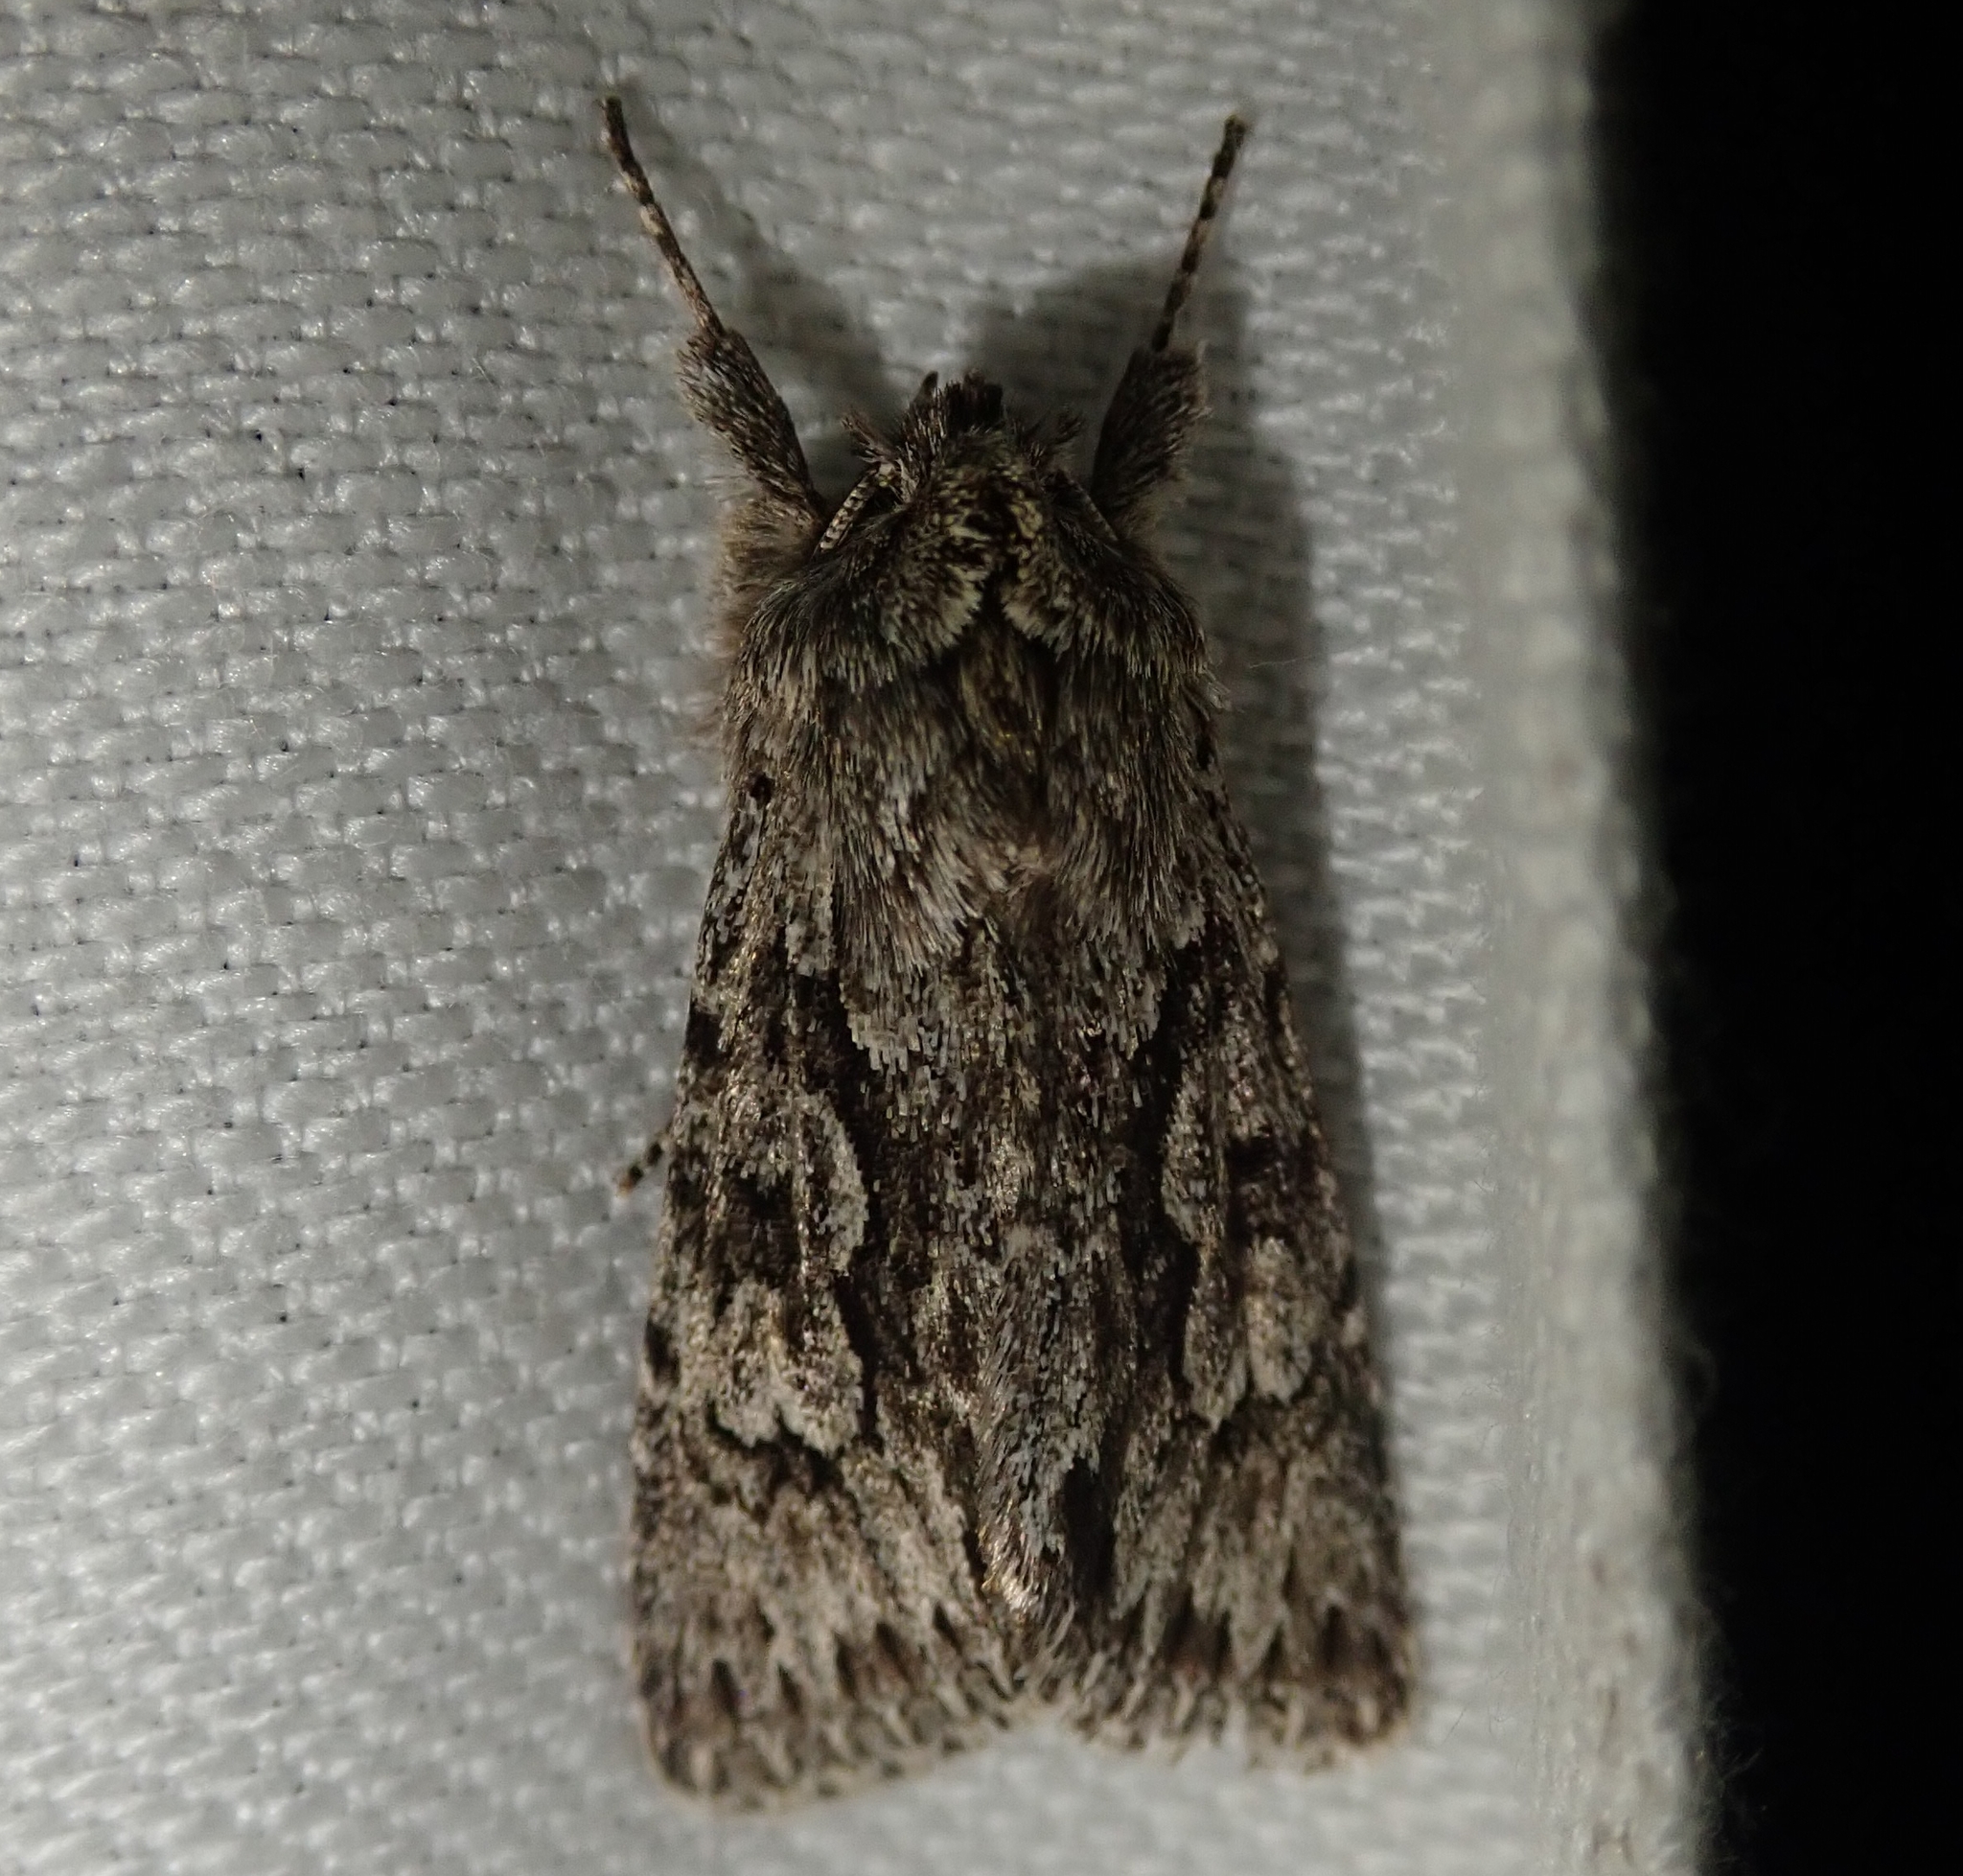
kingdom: Animalia
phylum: Arthropoda
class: Insecta
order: Lepidoptera
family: Noctuidae
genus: Xylocampa
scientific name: Xylocampa areola
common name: Early grey
